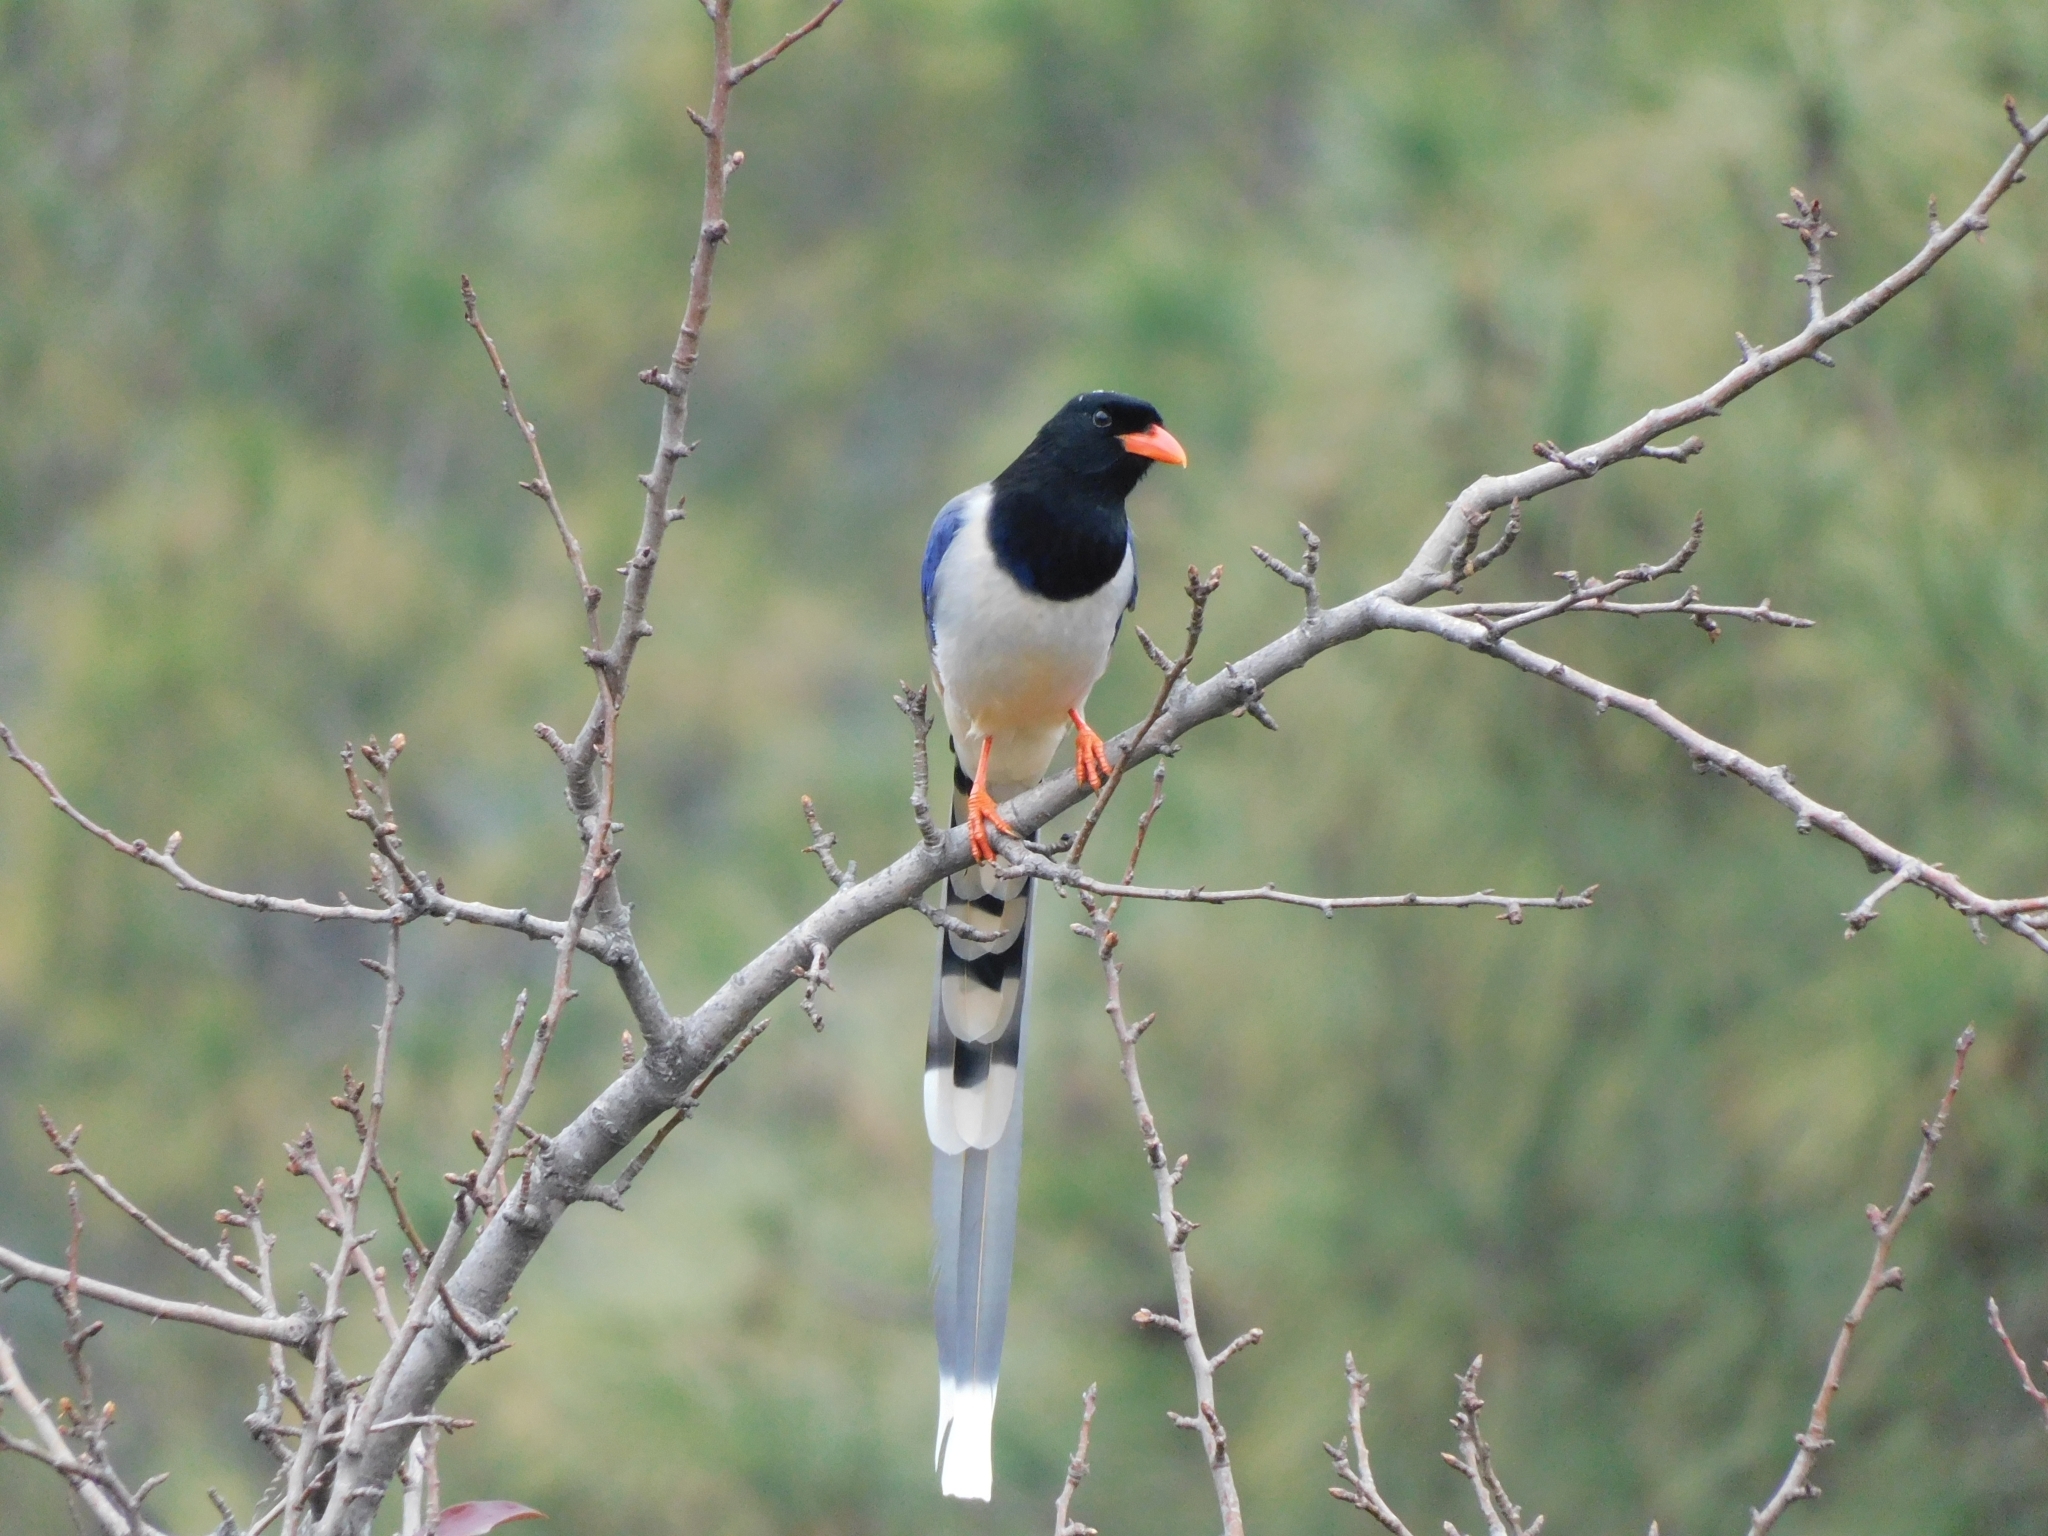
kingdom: Animalia
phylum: Chordata
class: Aves
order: Passeriformes
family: Corvidae
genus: Urocissa
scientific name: Urocissa erythroryncha
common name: Red-billed blue magpie
